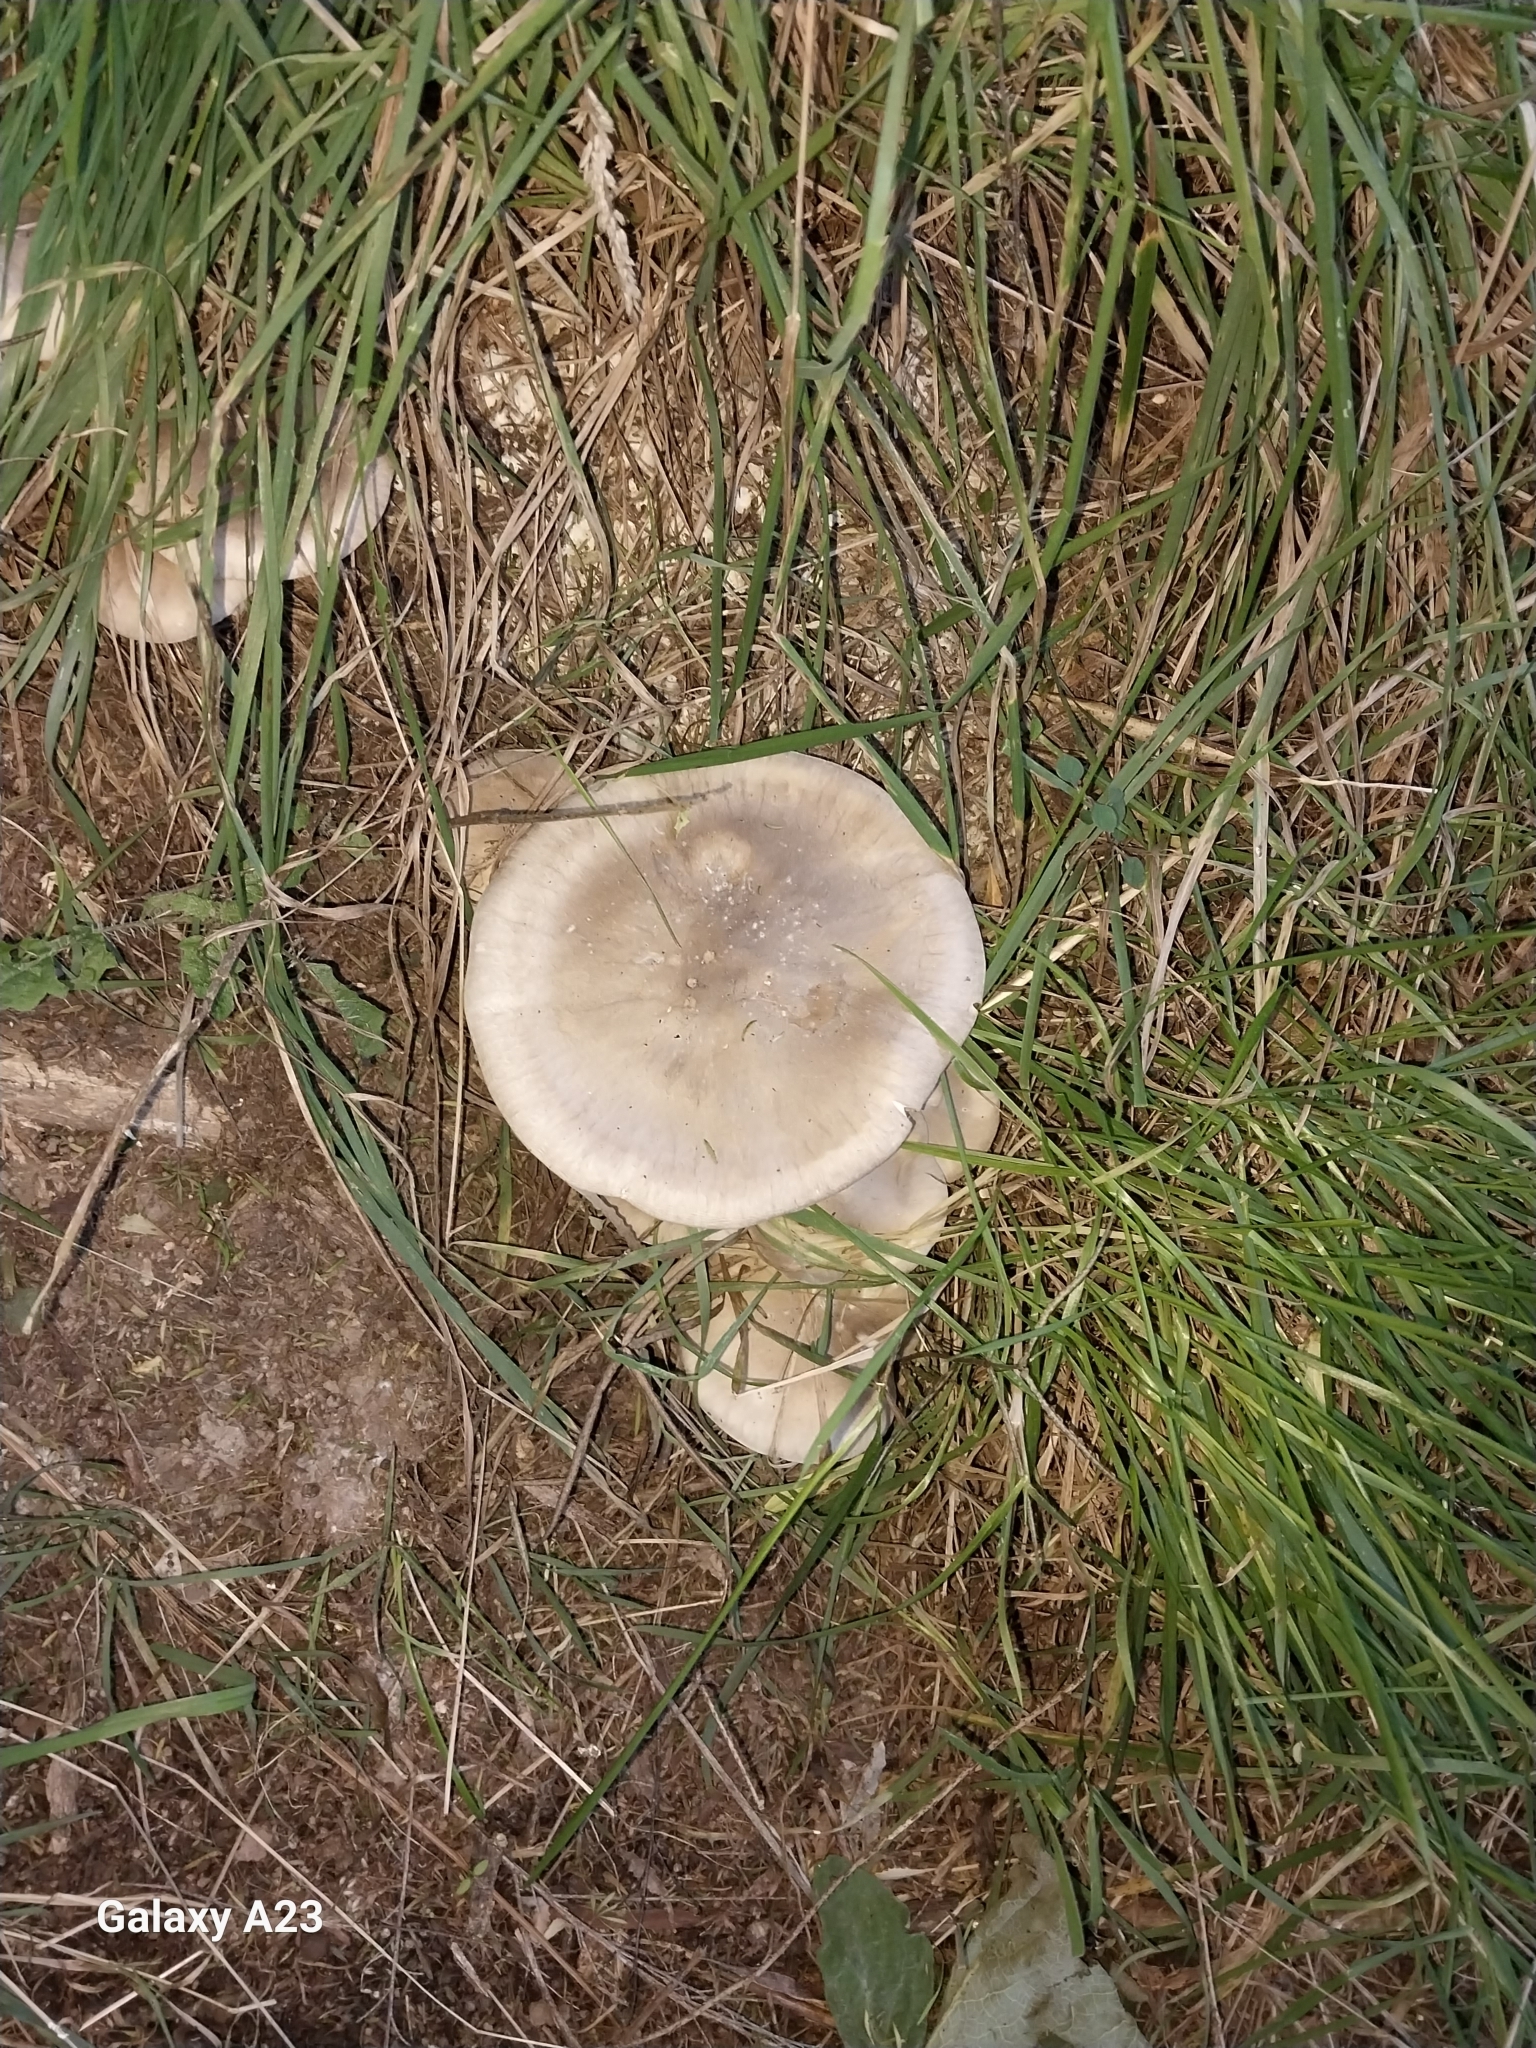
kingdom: Fungi
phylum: Basidiomycota
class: Agaricomycetes
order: Agaricales
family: Tricholomataceae
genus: Clitocybe
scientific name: Clitocybe nebularis
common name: Clouded agaric
